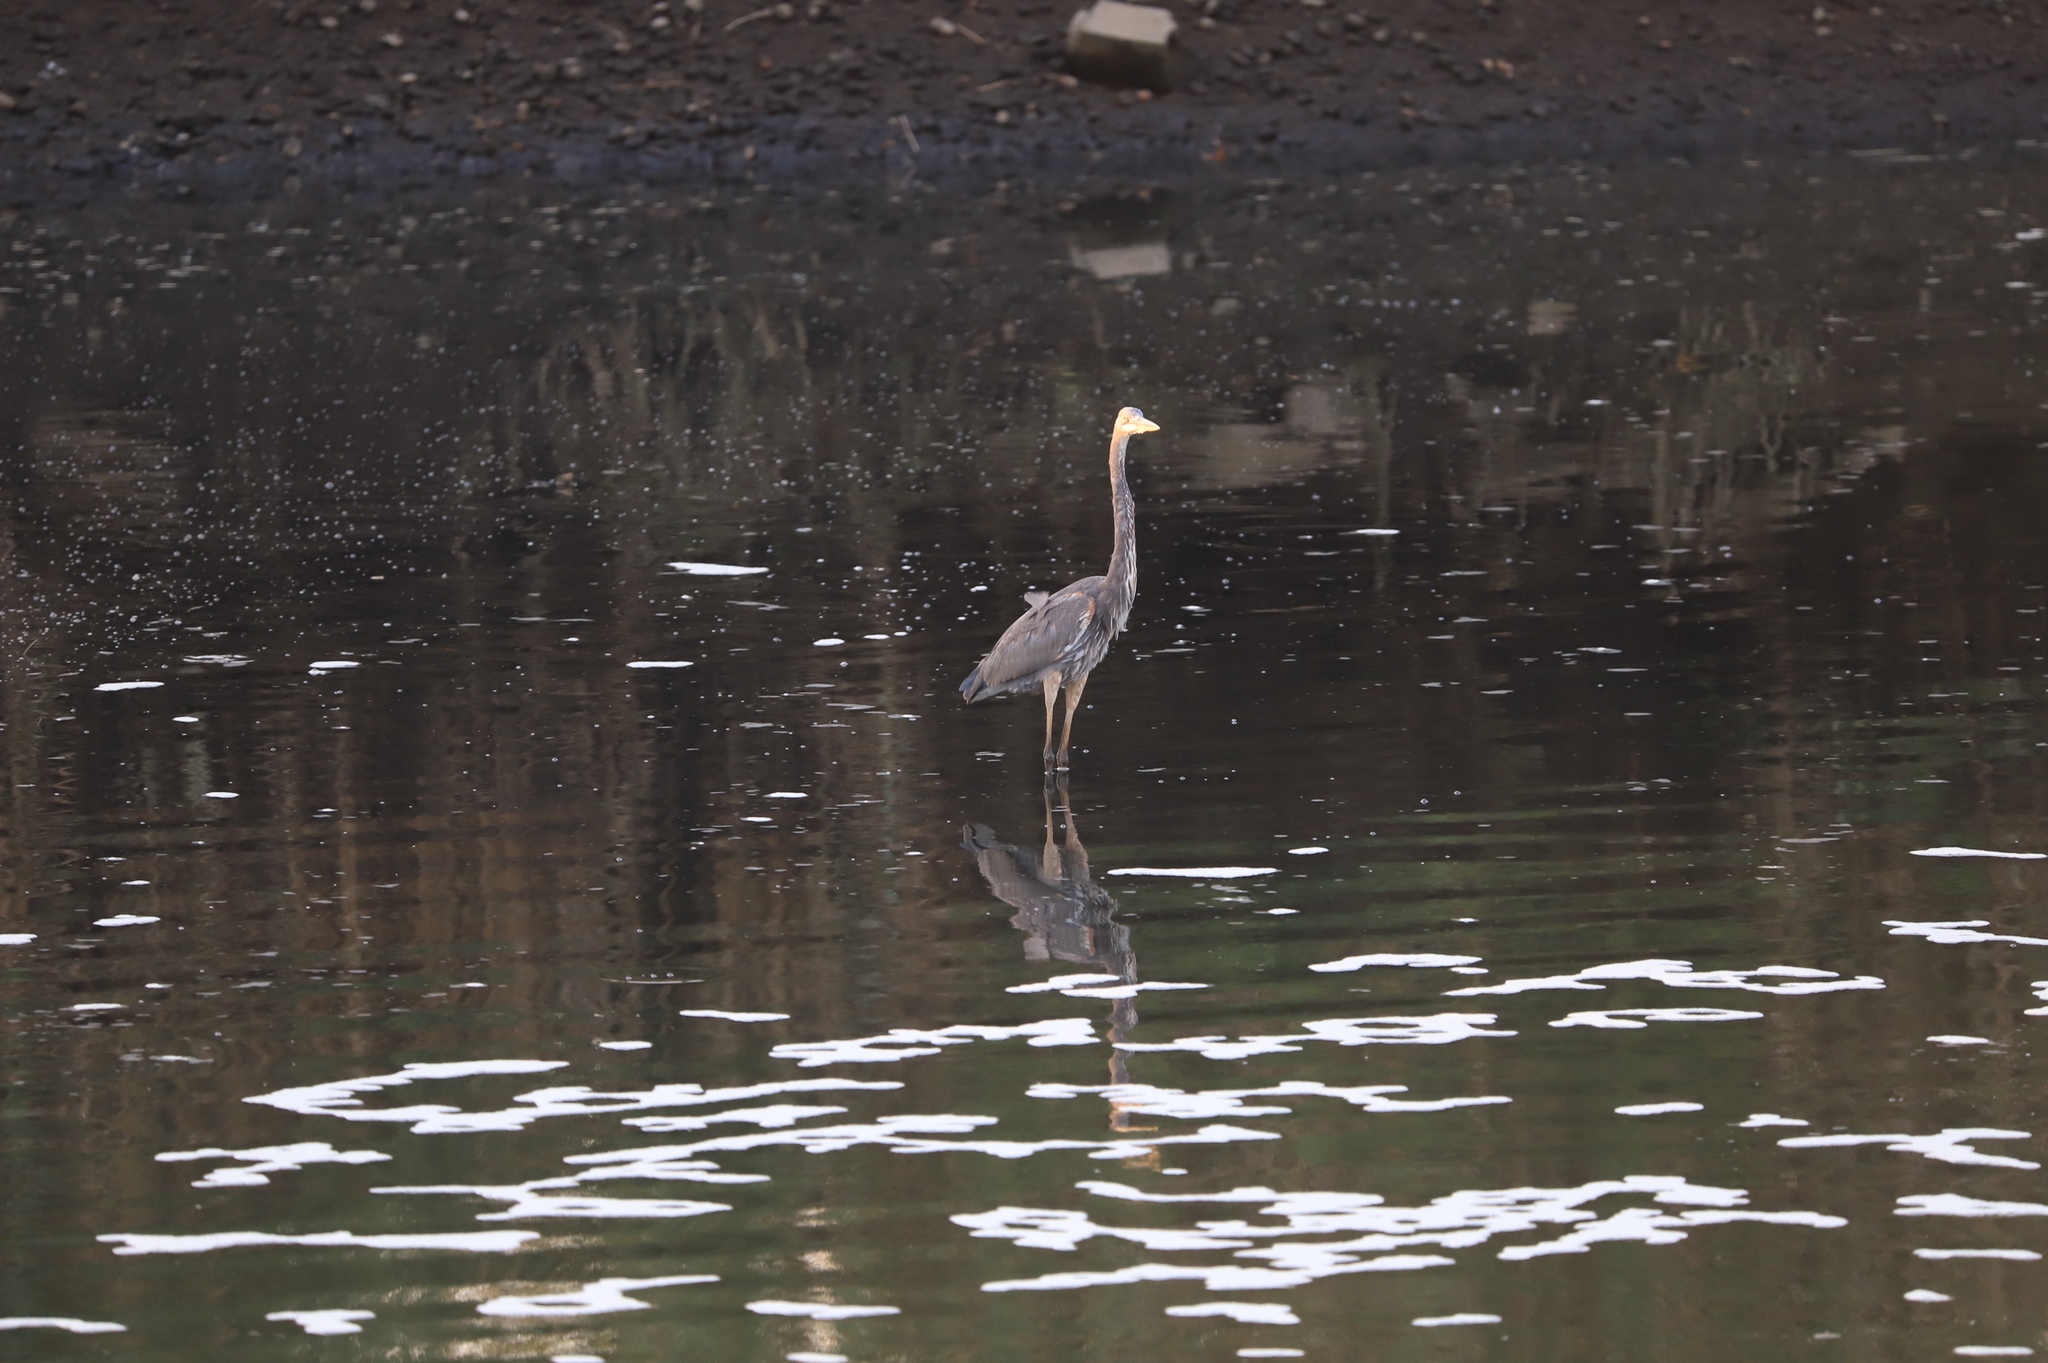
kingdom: Animalia
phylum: Chordata
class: Aves
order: Pelecaniformes
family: Ardeidae
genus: Ardea
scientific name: Ardea herodias
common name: Great blue heron
